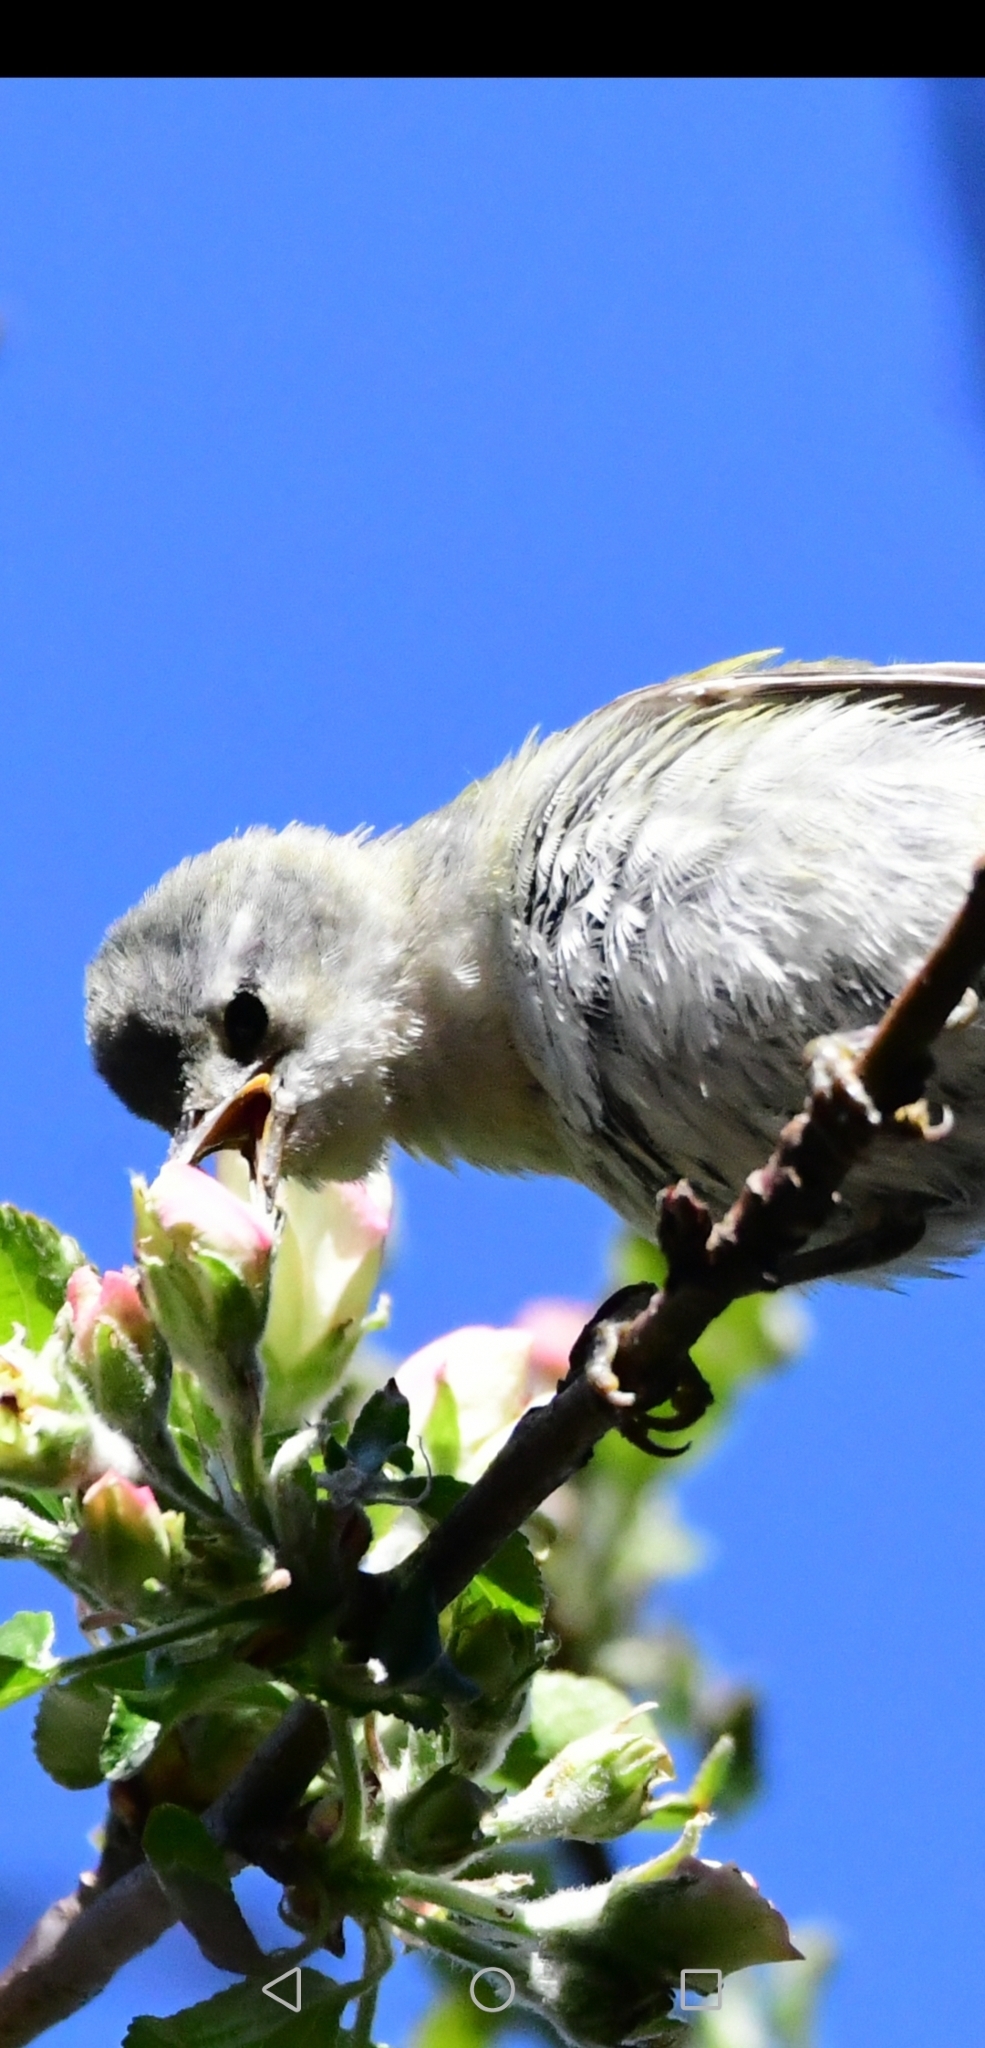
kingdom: Animalia
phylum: Chordata
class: Aves
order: Passeriformes
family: Parulidae
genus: Leiothlypis
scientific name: Leiothlypis peregrina
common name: Tennessee warbler
